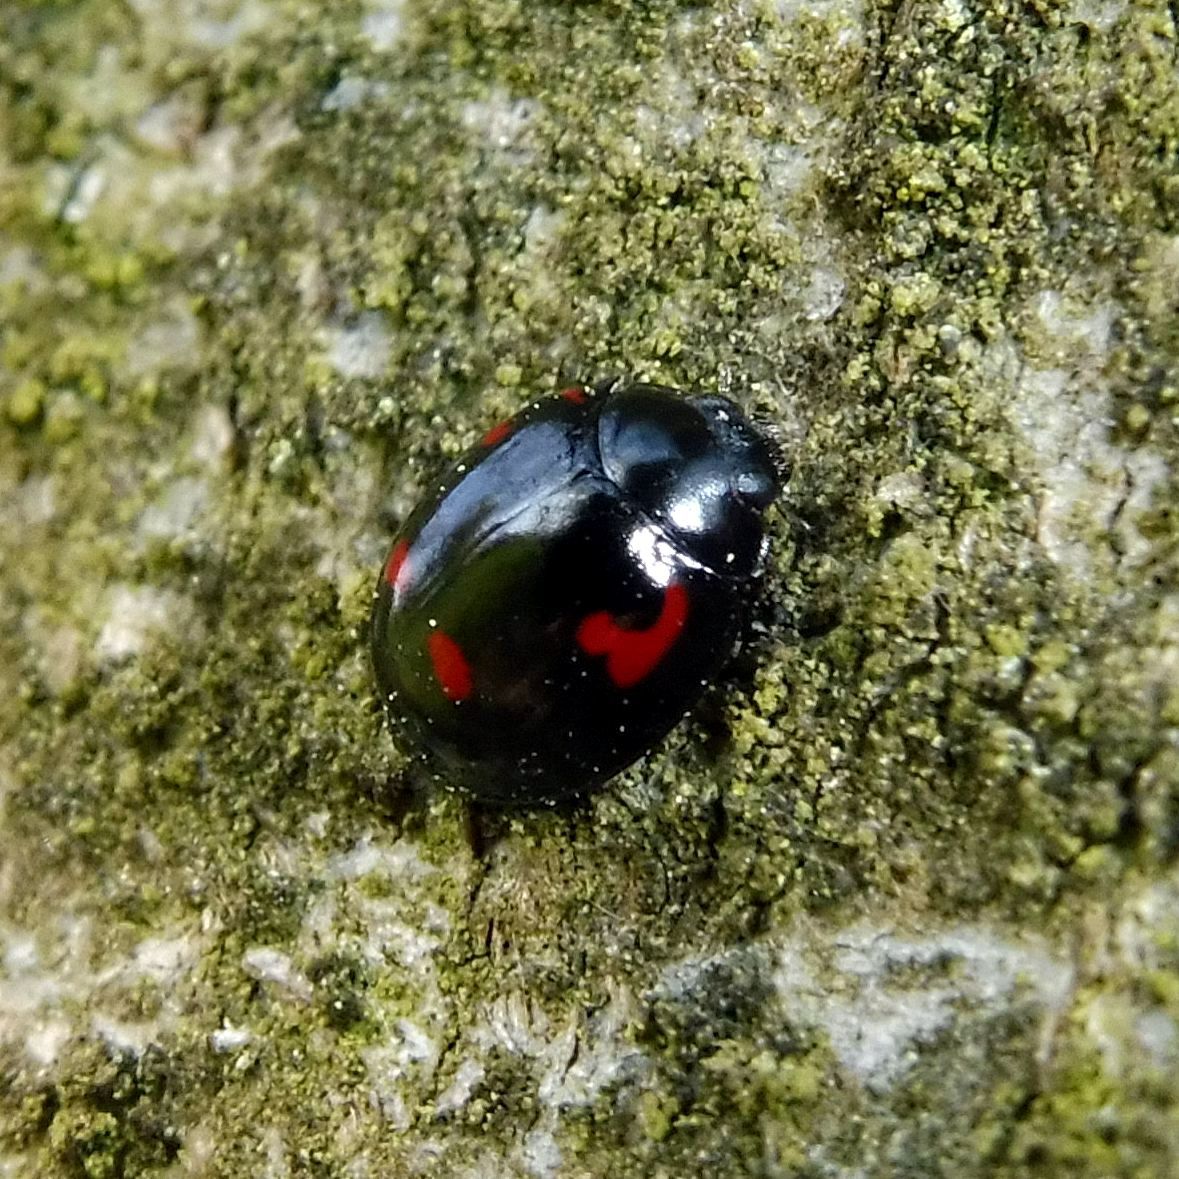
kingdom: Animalia
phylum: Arthropoda
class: Insecta
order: Coleoptera
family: Coccinellidae
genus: Brumus
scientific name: Brumus quadripustulatus
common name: Ladybird beetle
